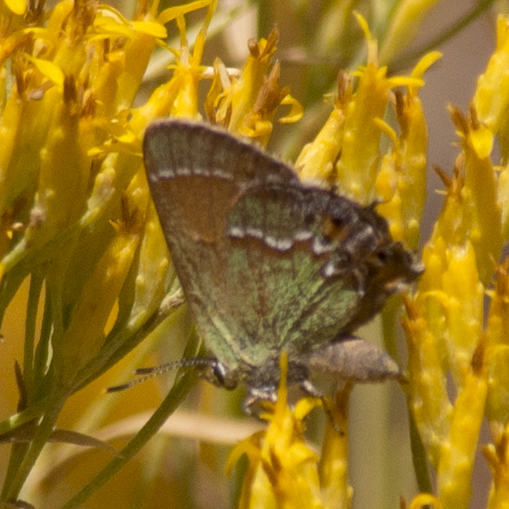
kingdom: Animalia
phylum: Arthropoda
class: Insecta
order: Lepidoptera
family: Lycaenidae
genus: Mitoura
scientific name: Mitoura siva
